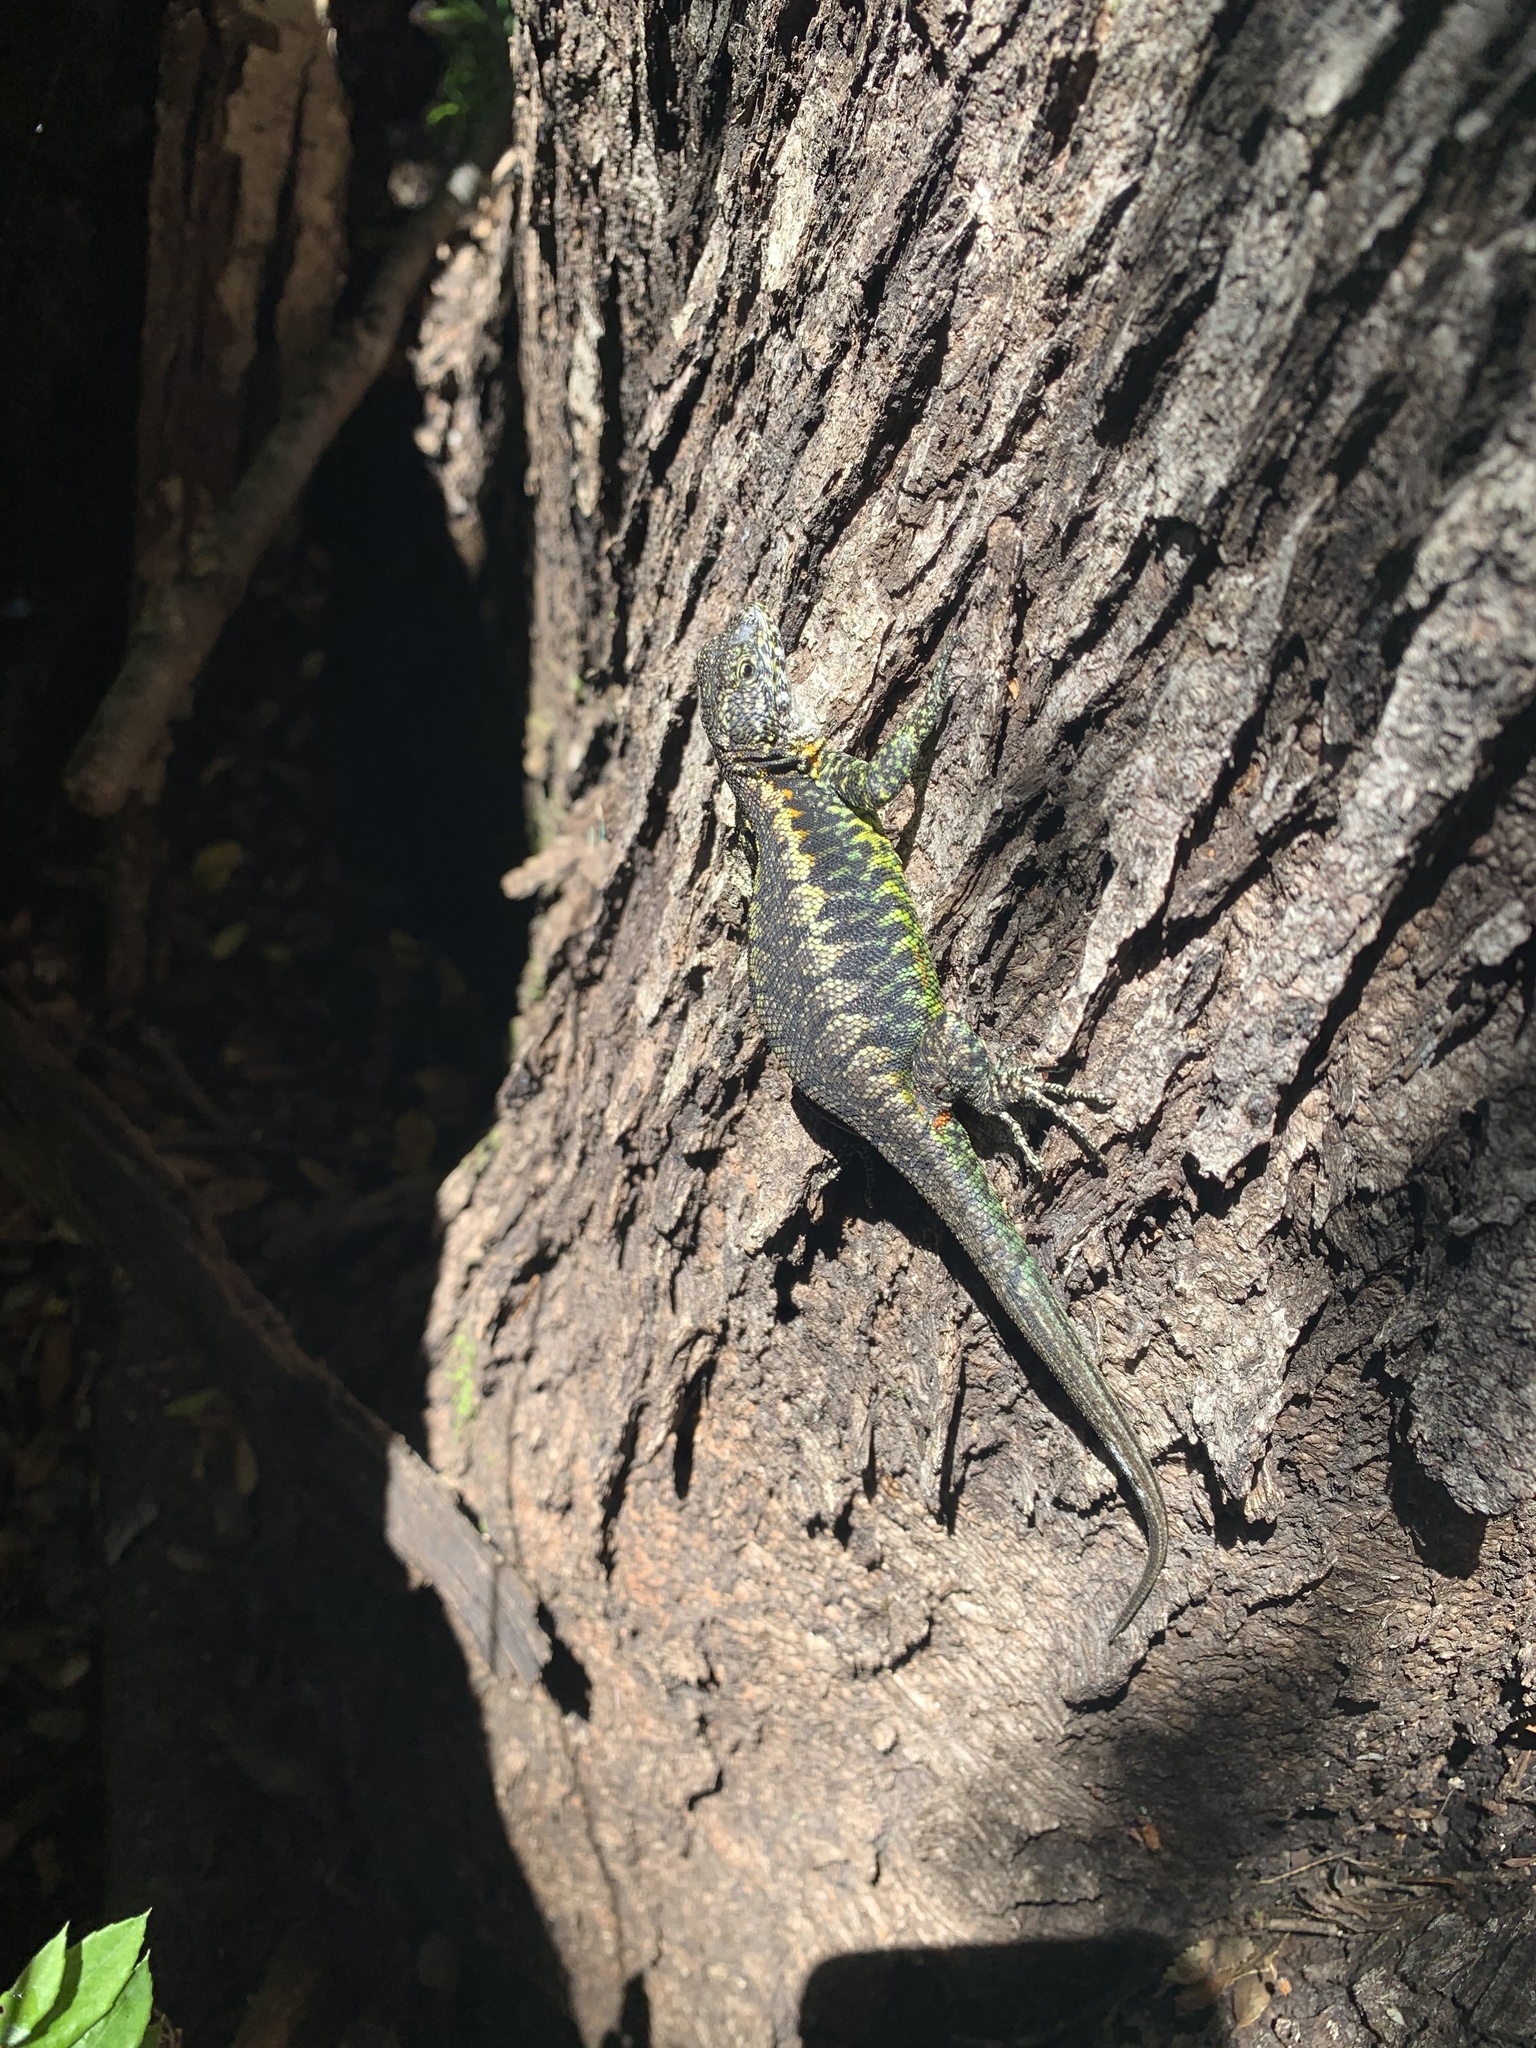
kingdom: Animalia
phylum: Chordata
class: Squamata
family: Liolaemidae
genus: Liolaemus
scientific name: Liolaemus pictus
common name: Painted tree iguana
